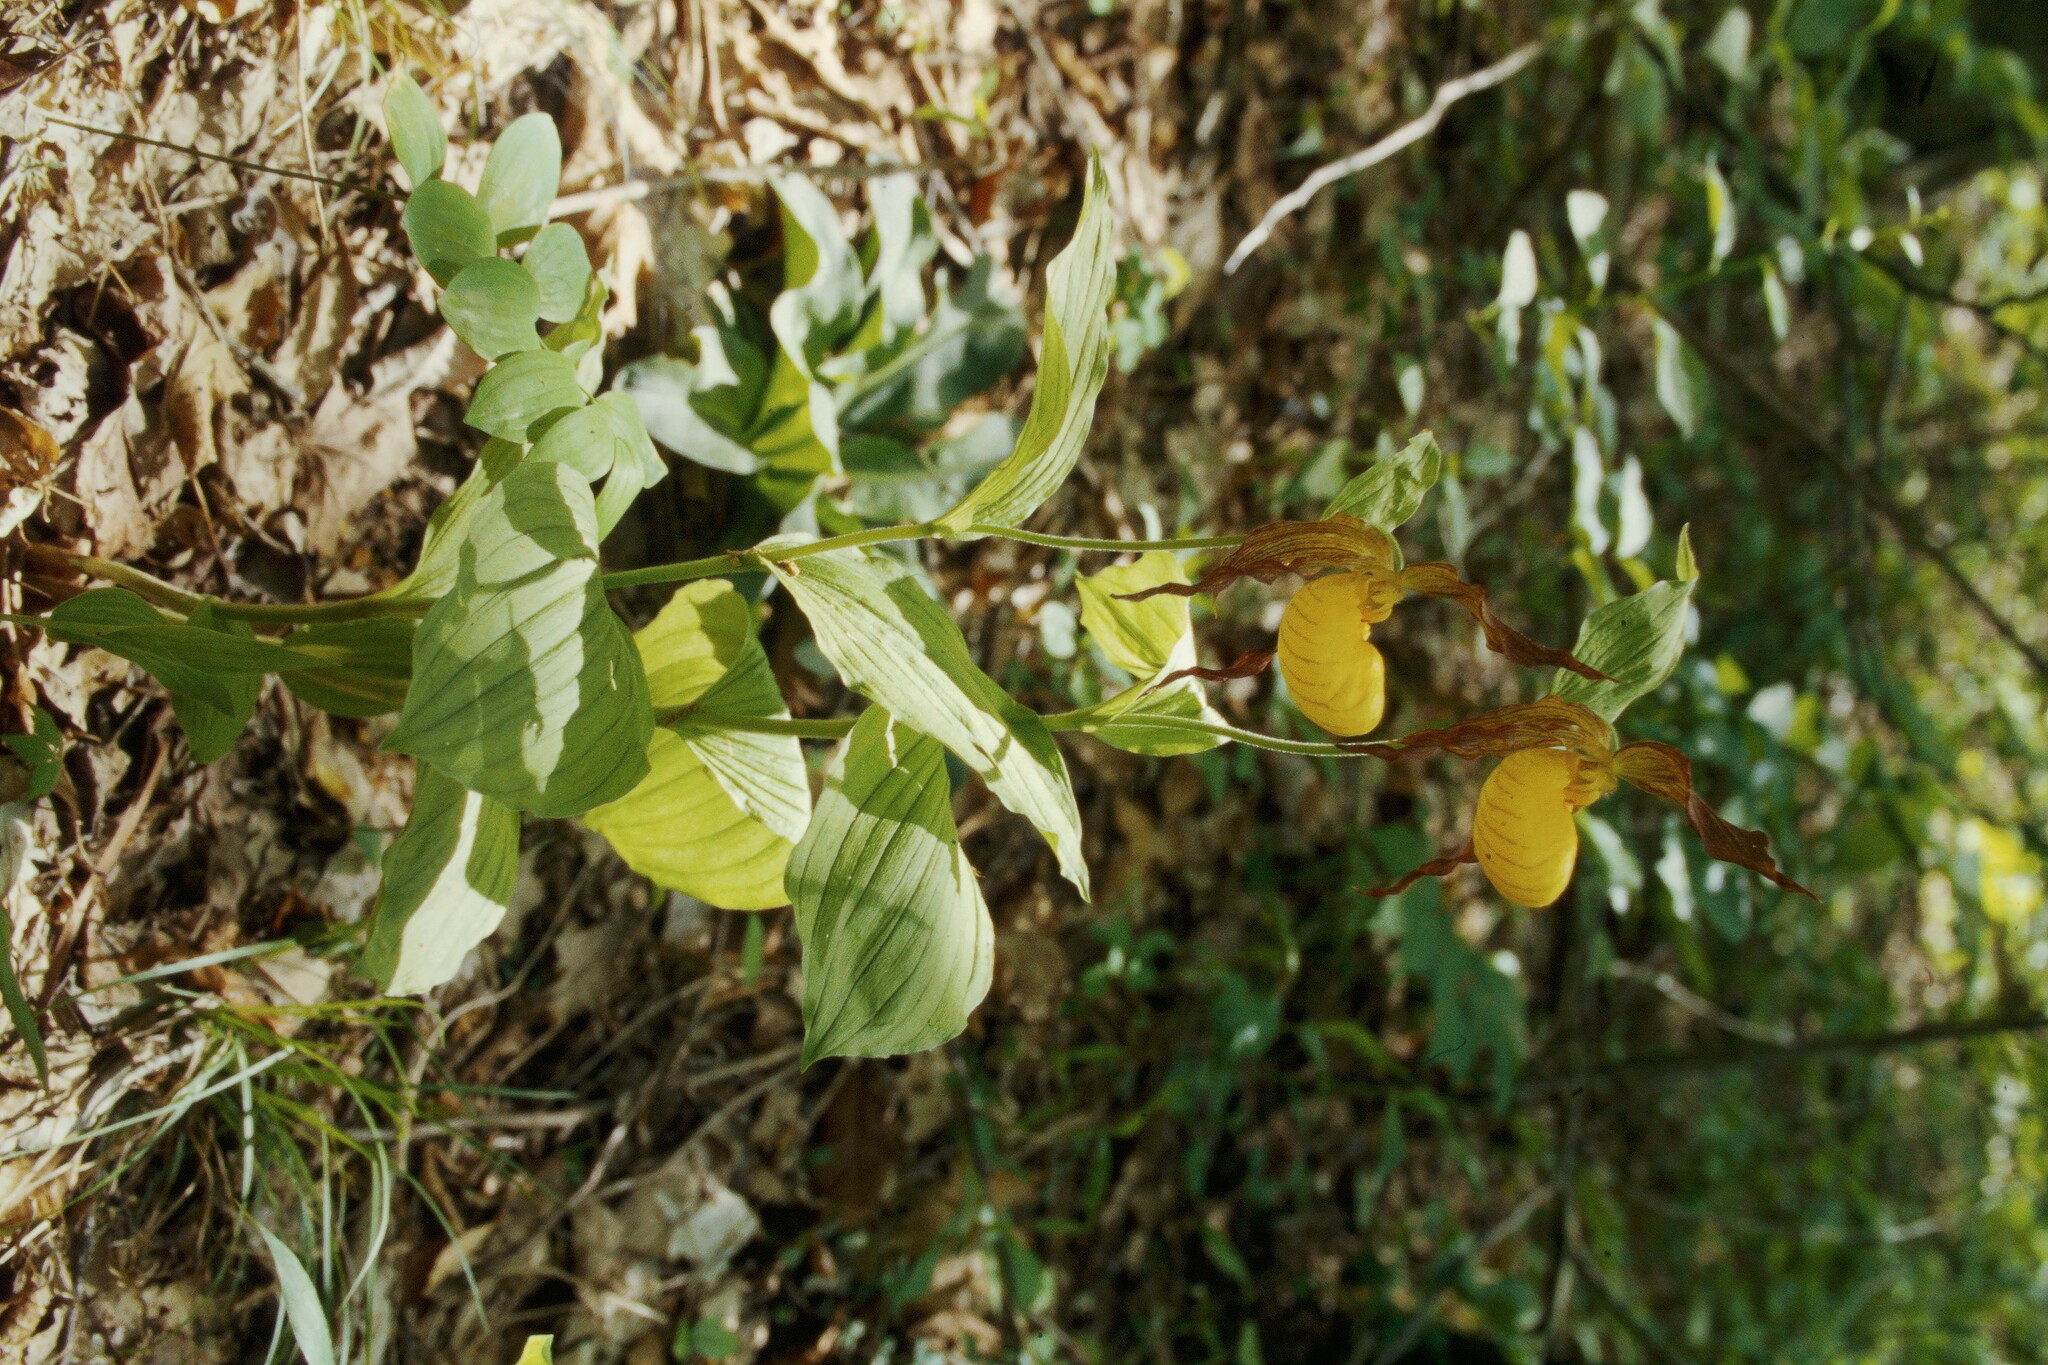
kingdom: Plantae
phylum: Tracheophyta
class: Liliopsida
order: Asparagales
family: Orchidaceae
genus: Cypripedium
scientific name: Cypripedium parviflorum
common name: American yellow lady's-slipper
